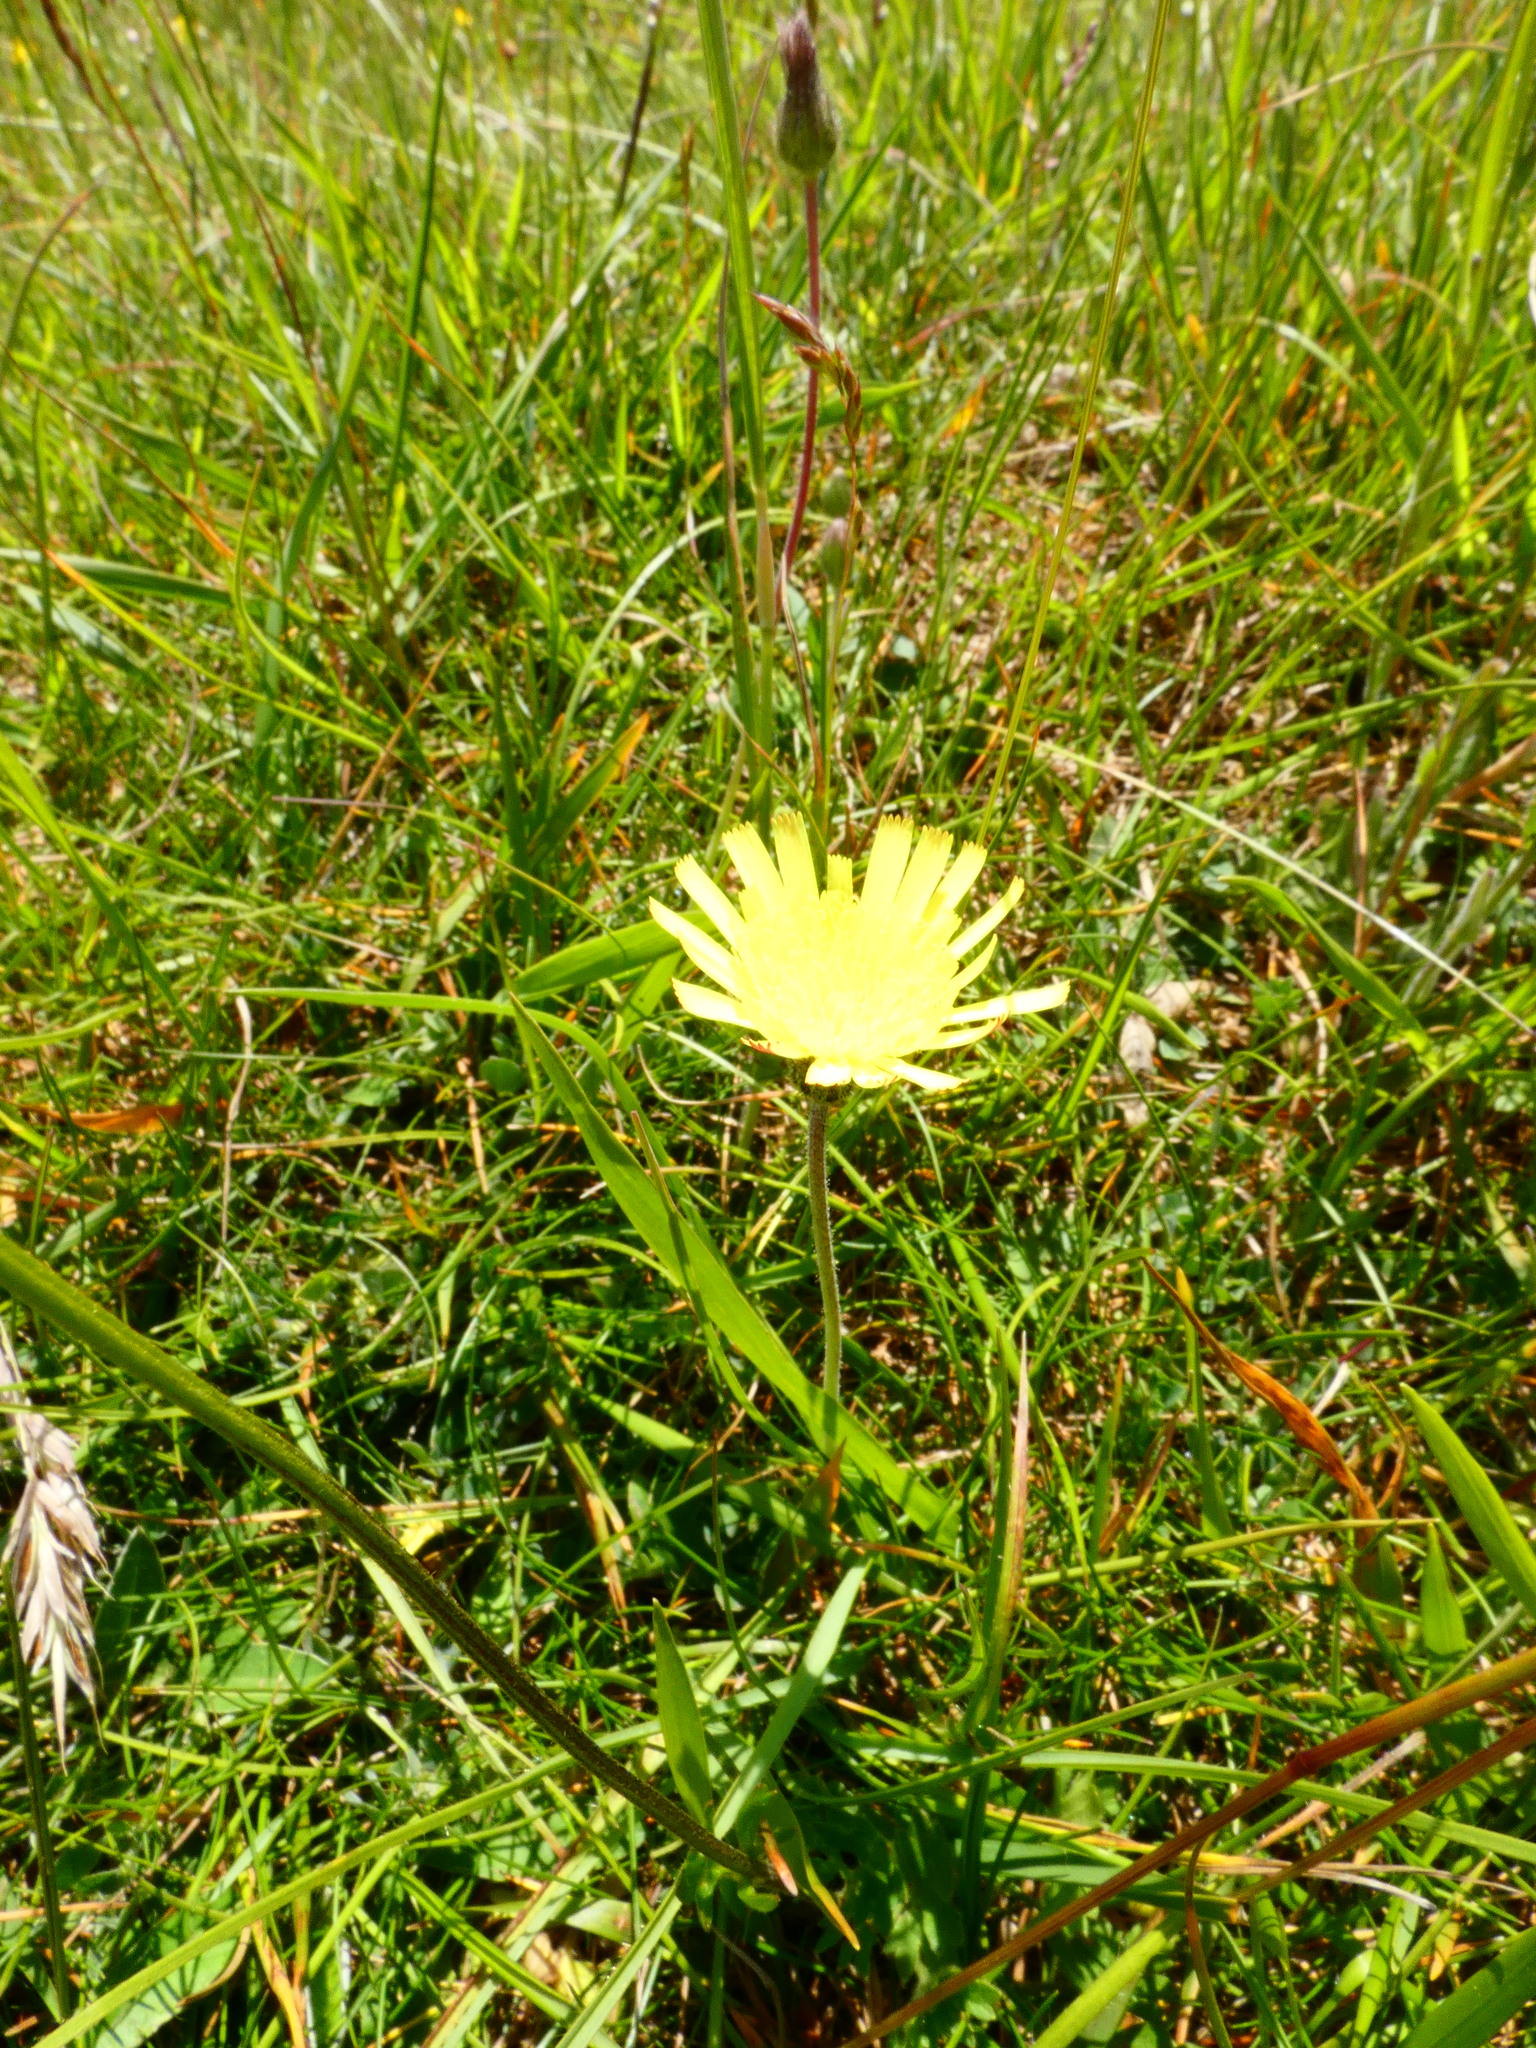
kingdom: Plantae
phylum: Tracheophyta
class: Magnoliopsida
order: Asterales
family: Asteraceae
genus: Pilosella
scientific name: Pilosella officinarum
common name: Mouse-ear hawkweed
